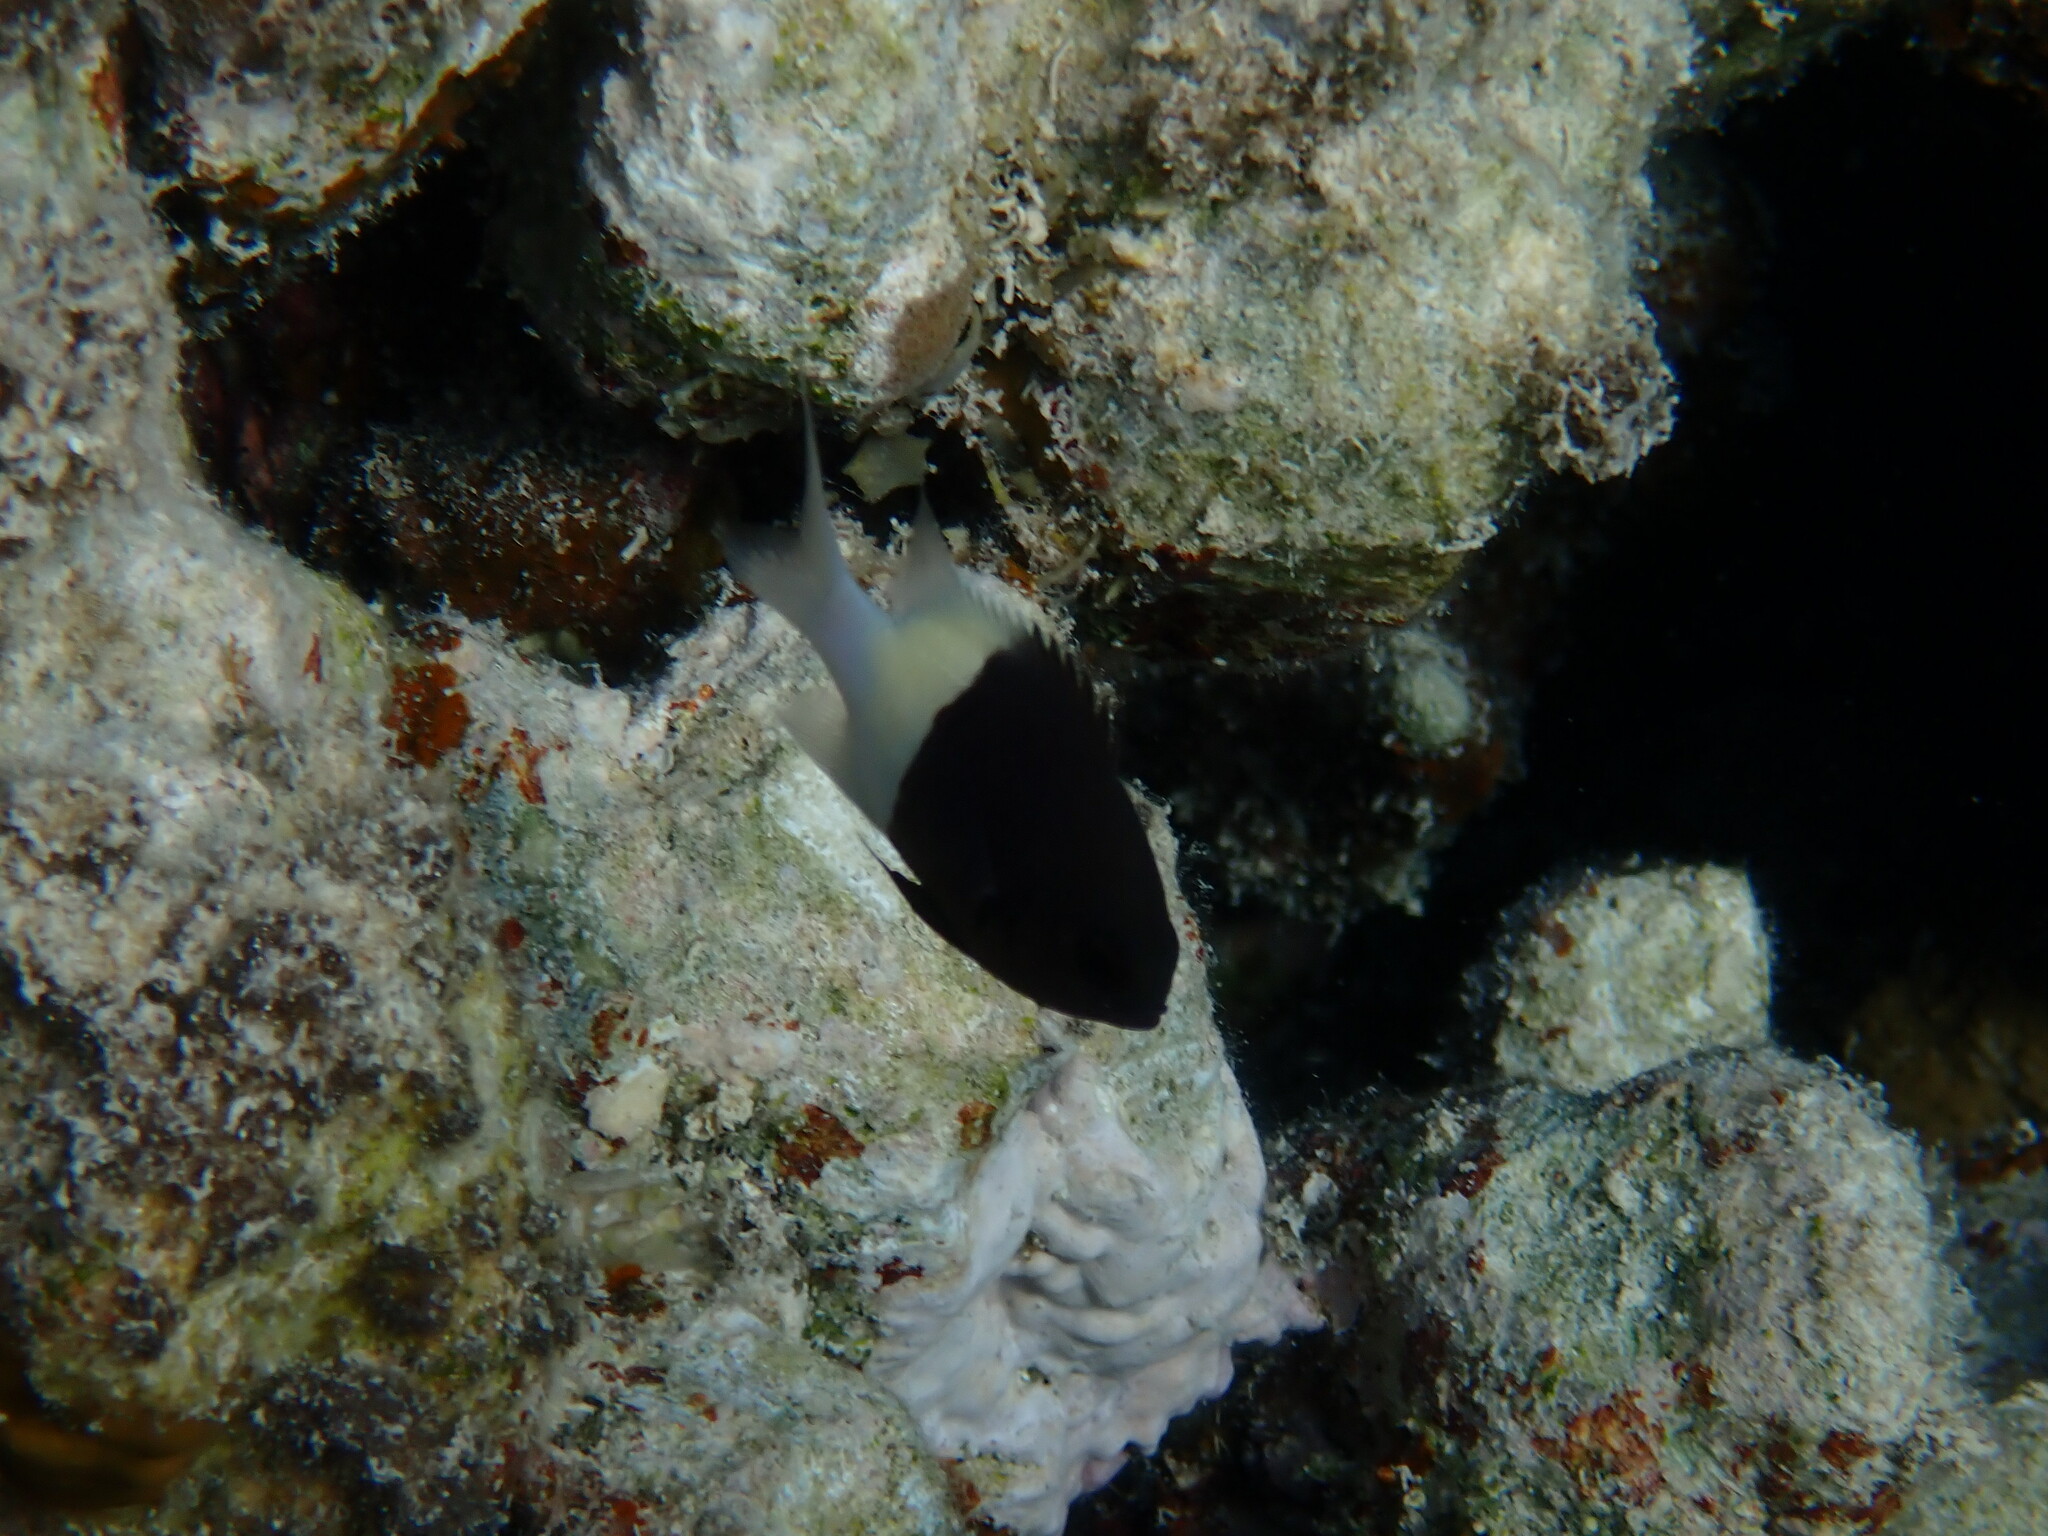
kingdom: Animalia
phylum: Chordata
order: Perciformes
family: Pomacentridae
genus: Chromis
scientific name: Chromis dimidiata
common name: Half-and-half chromis
